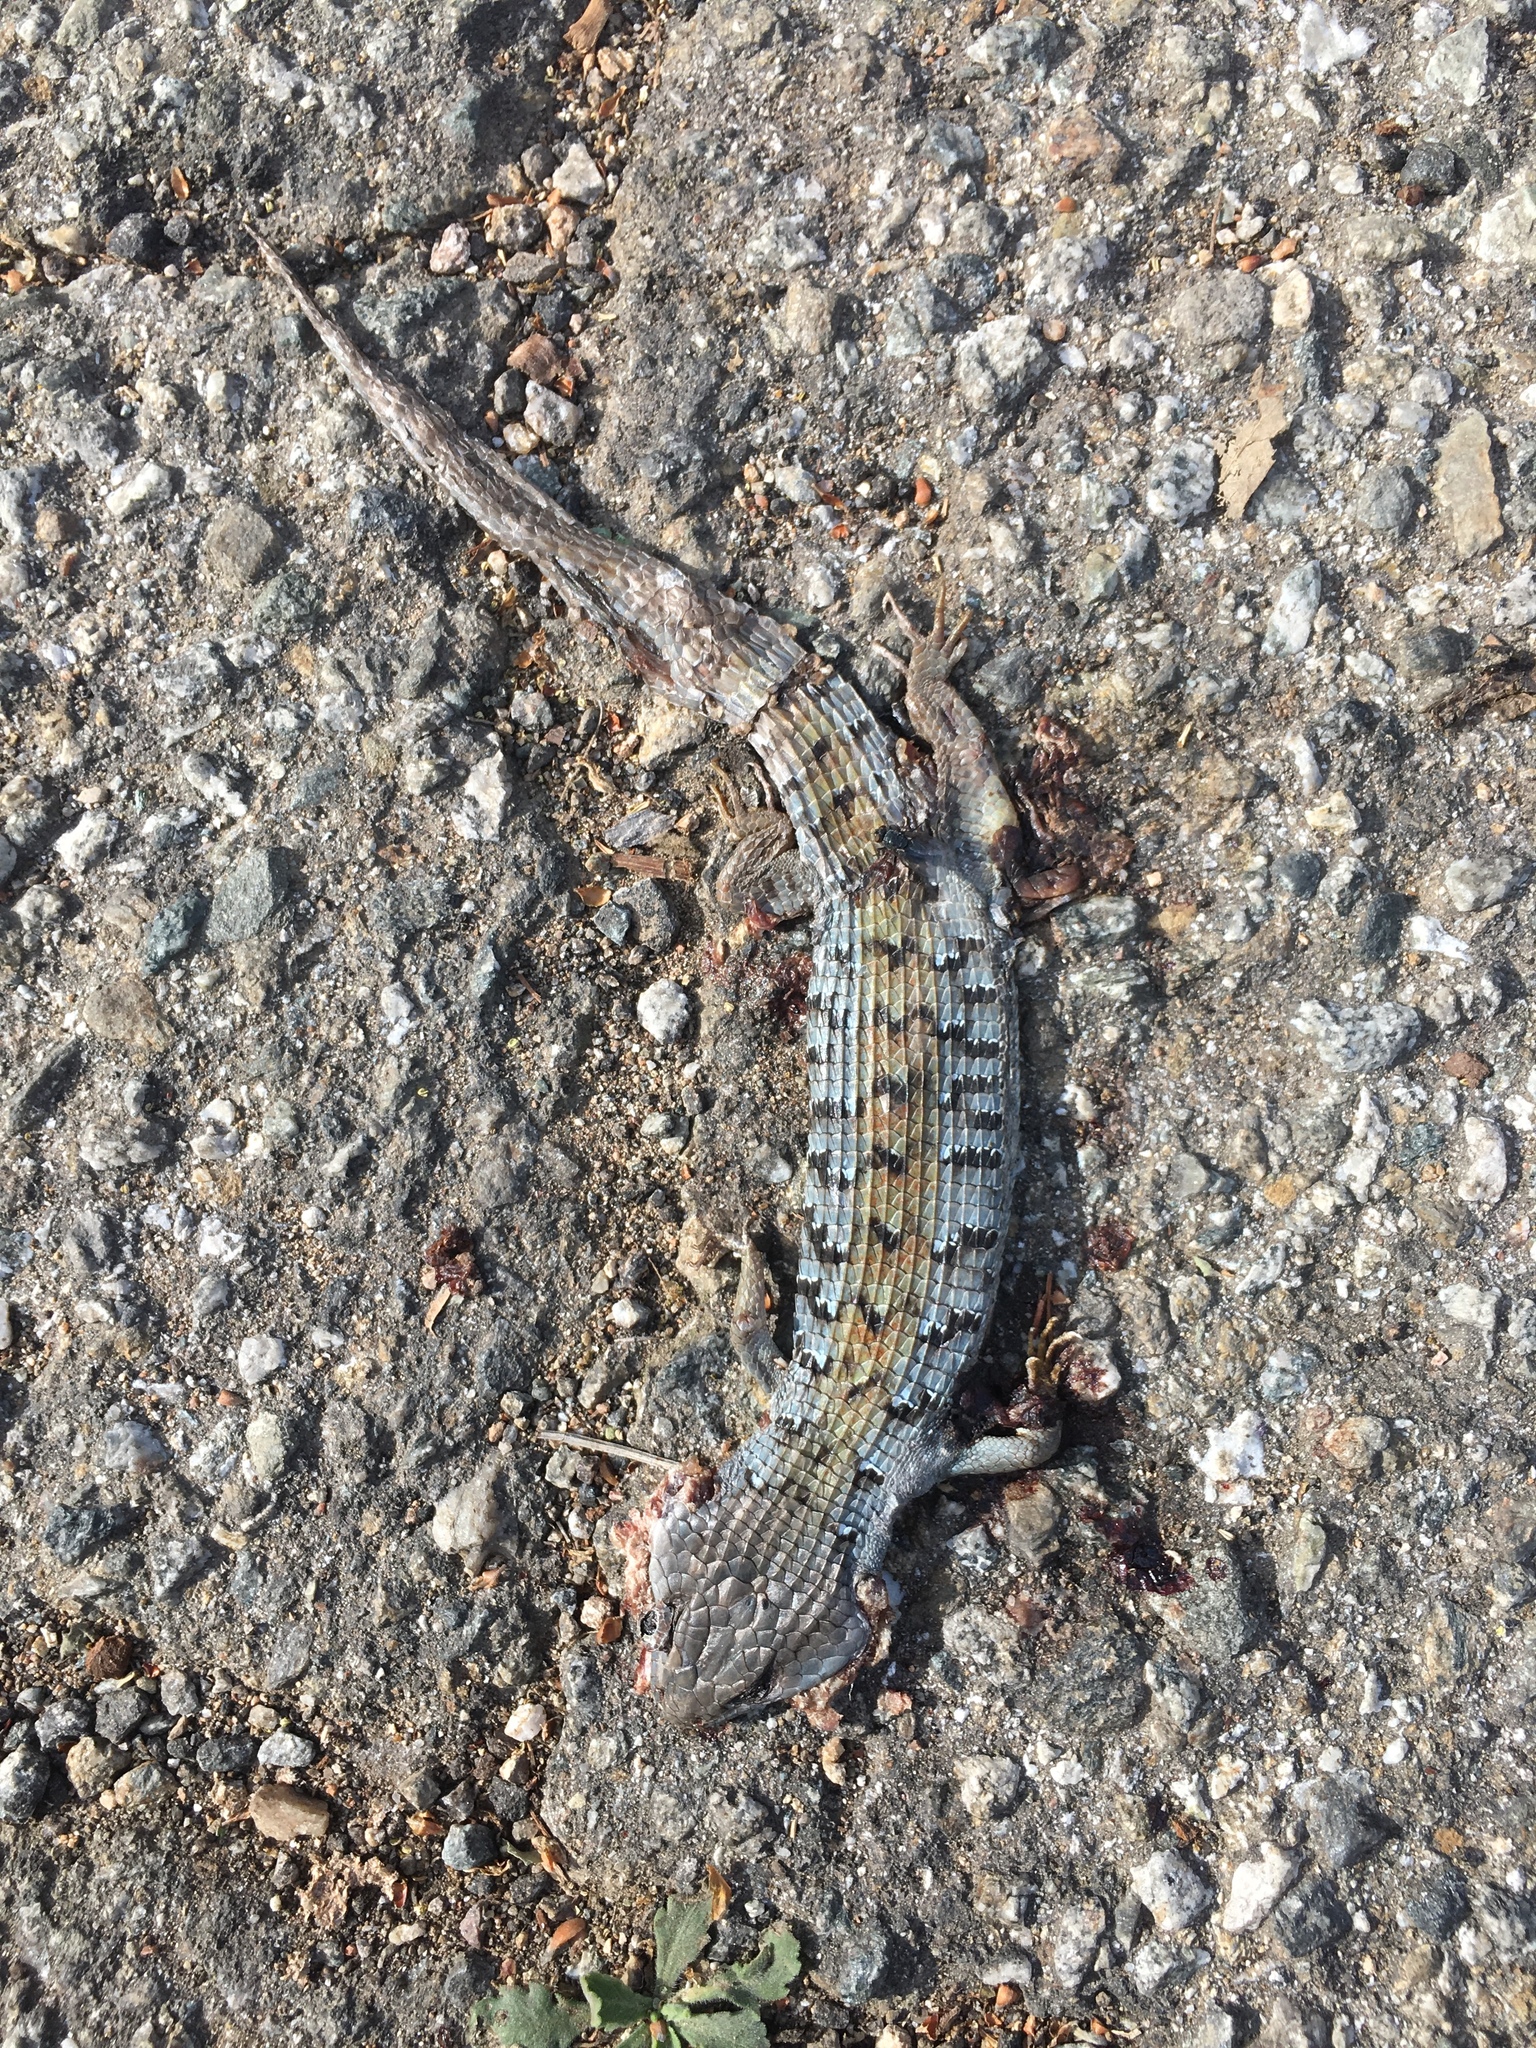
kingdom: Animalia
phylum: Chordata
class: Squamata
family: Anguidae
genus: Elgaria
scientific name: Elgaria multicarinata
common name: Southern alligator lizard
